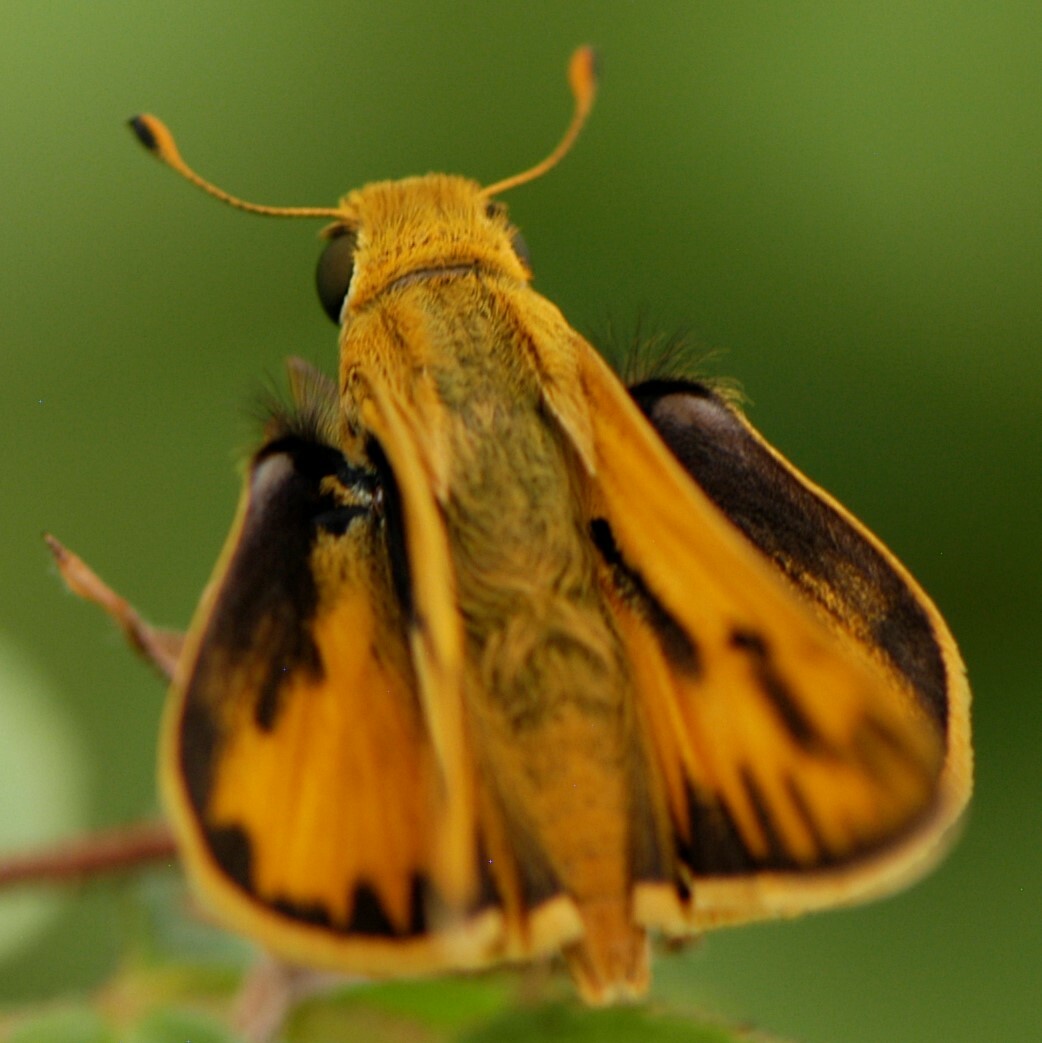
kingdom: Animalia
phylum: Arthropoda
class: Insecta
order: Lepidoptera
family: Hesperiidae
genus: Hylephila
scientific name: Hylephila phyleus
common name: Fiery skipper
